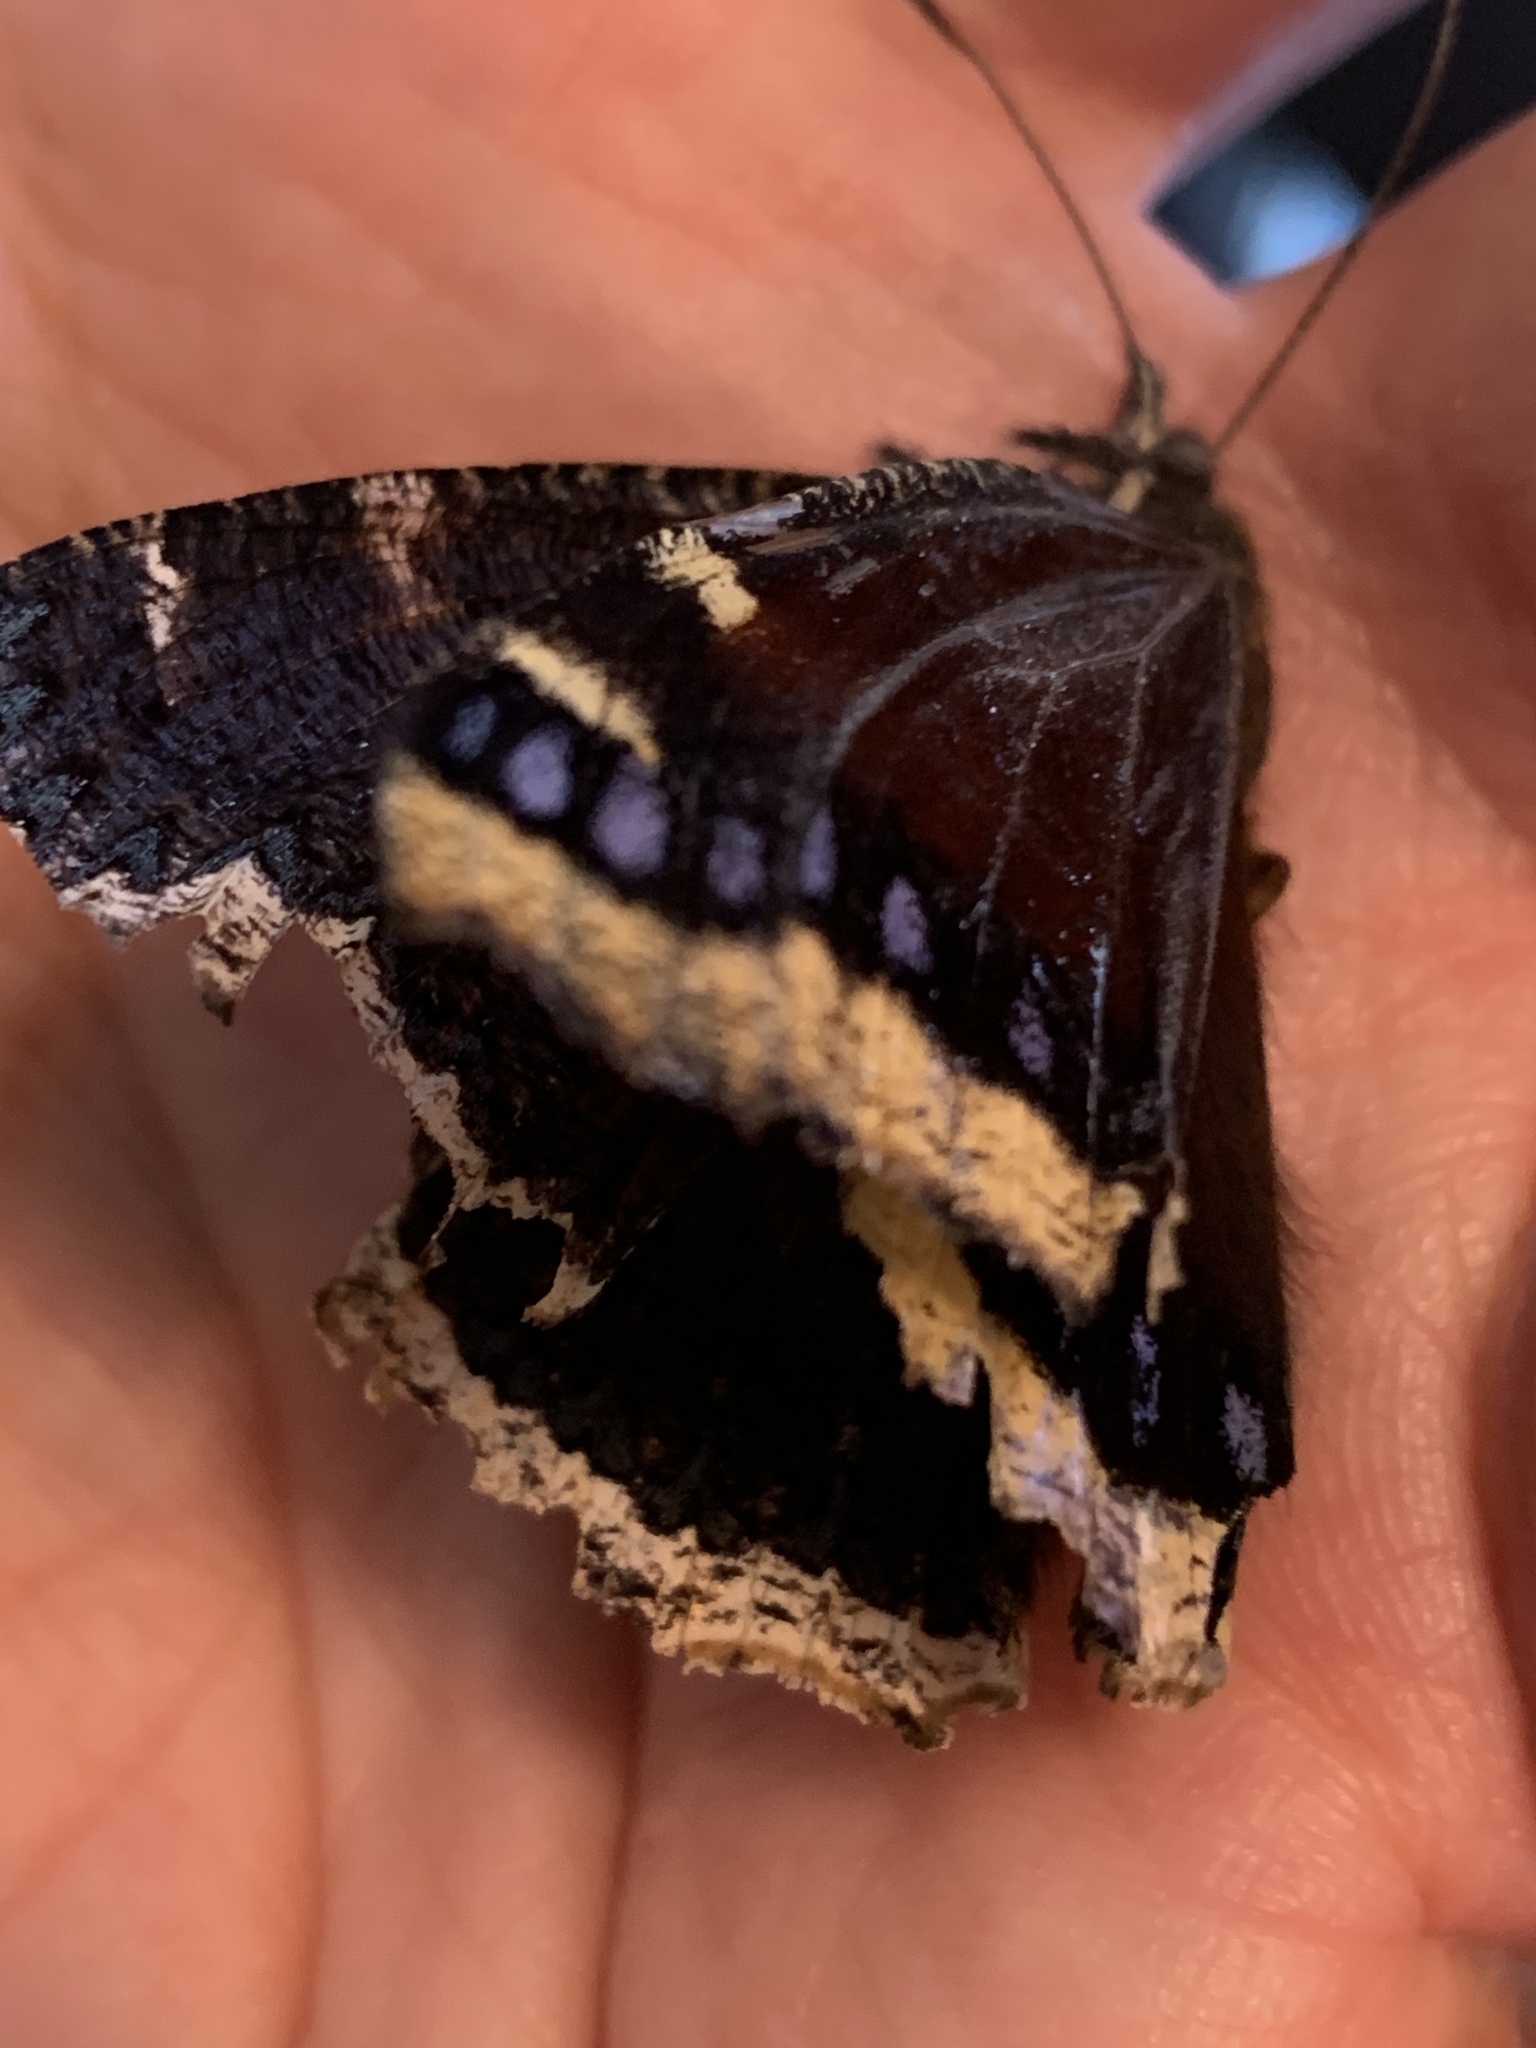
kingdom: Animalia
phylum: Arthropoda
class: Insecta
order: Lepidoptera
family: Nymphalidae
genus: Nymphalis
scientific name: Nymphalis antiopa
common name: Camberwell beauty
